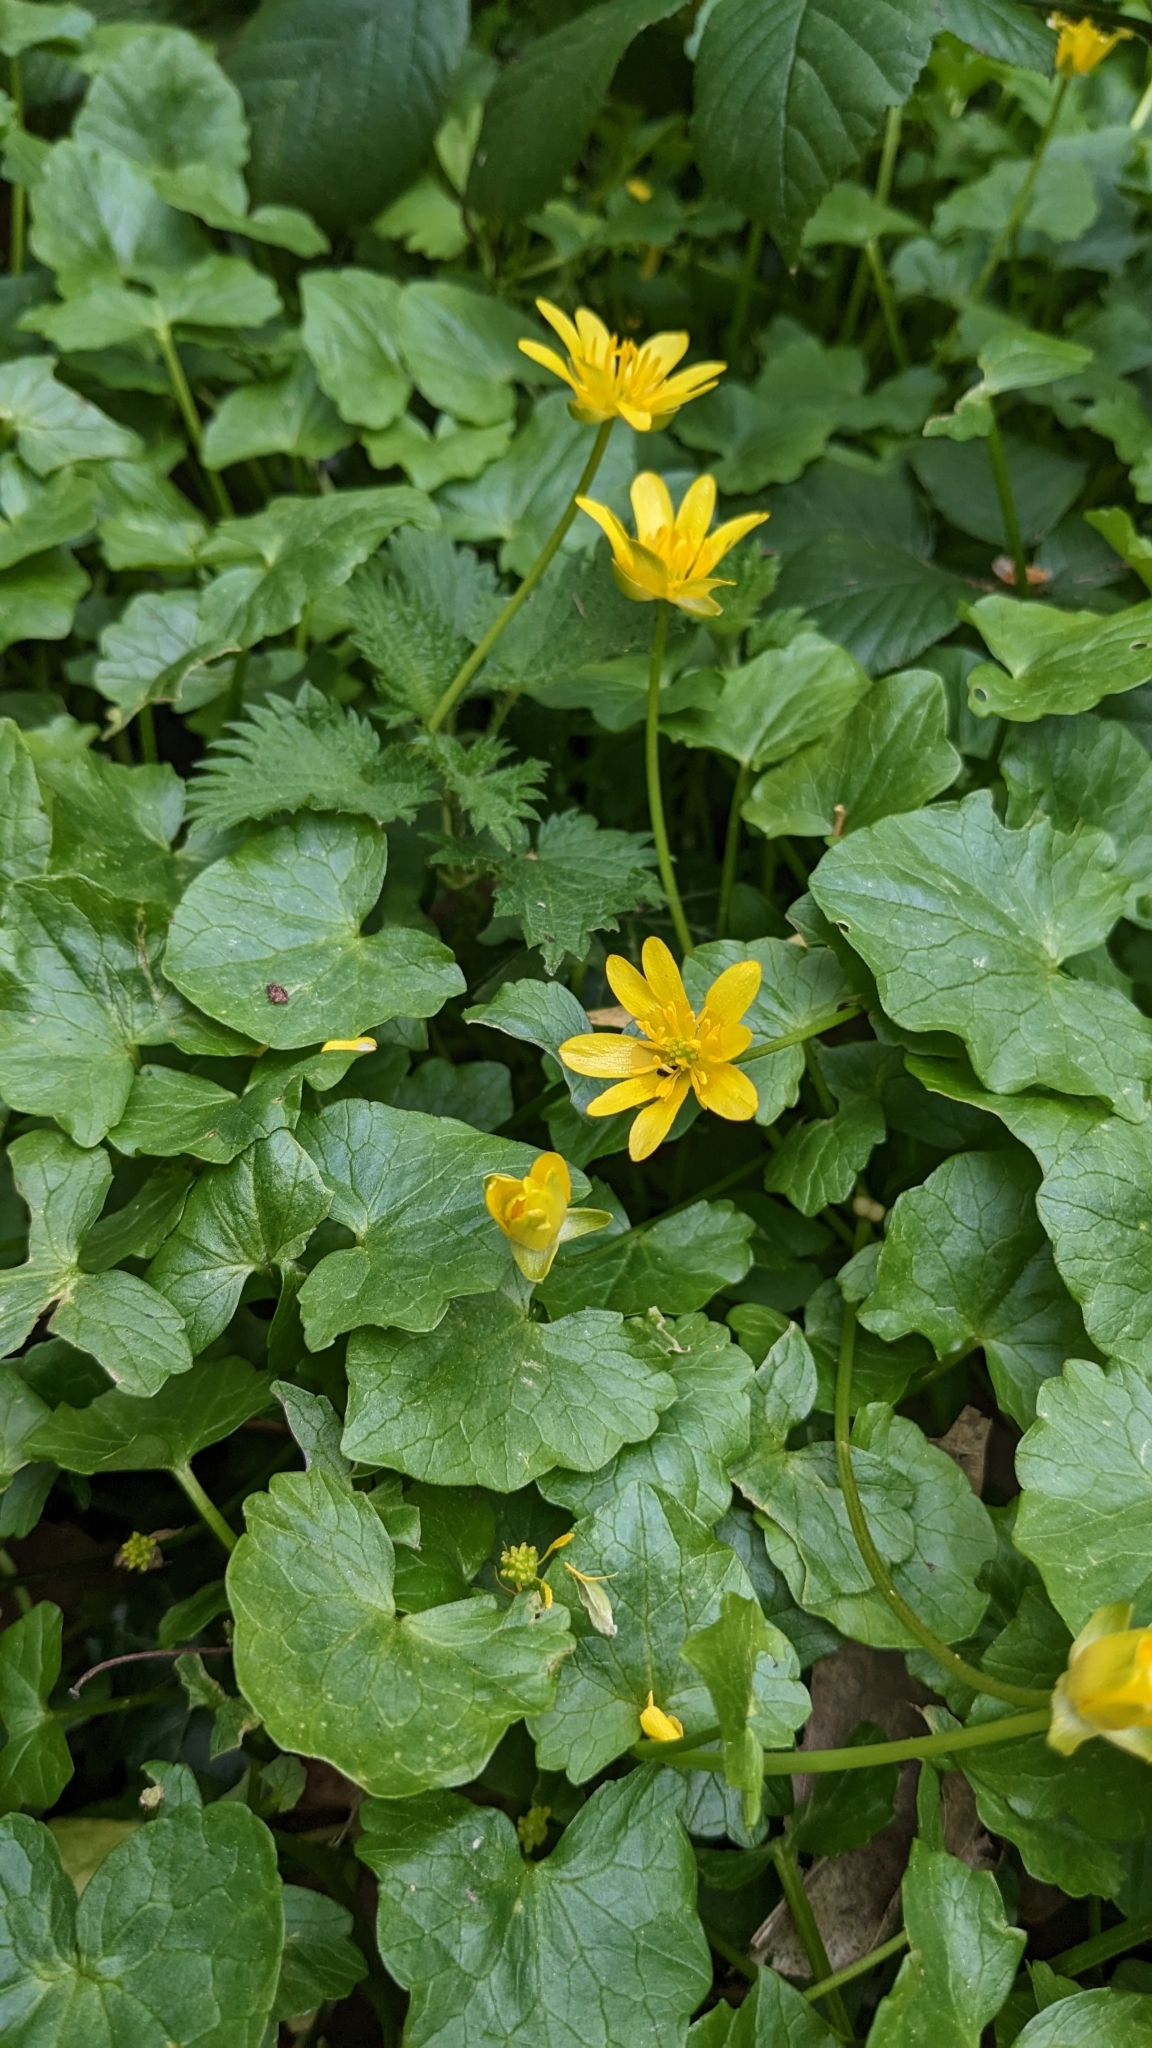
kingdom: Plantae
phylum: Tracheophyta
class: Magnoliopsida
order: Ranunculales
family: Ranunculaceae
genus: Ficaria
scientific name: Ficaria verna
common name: Lesser celandine
